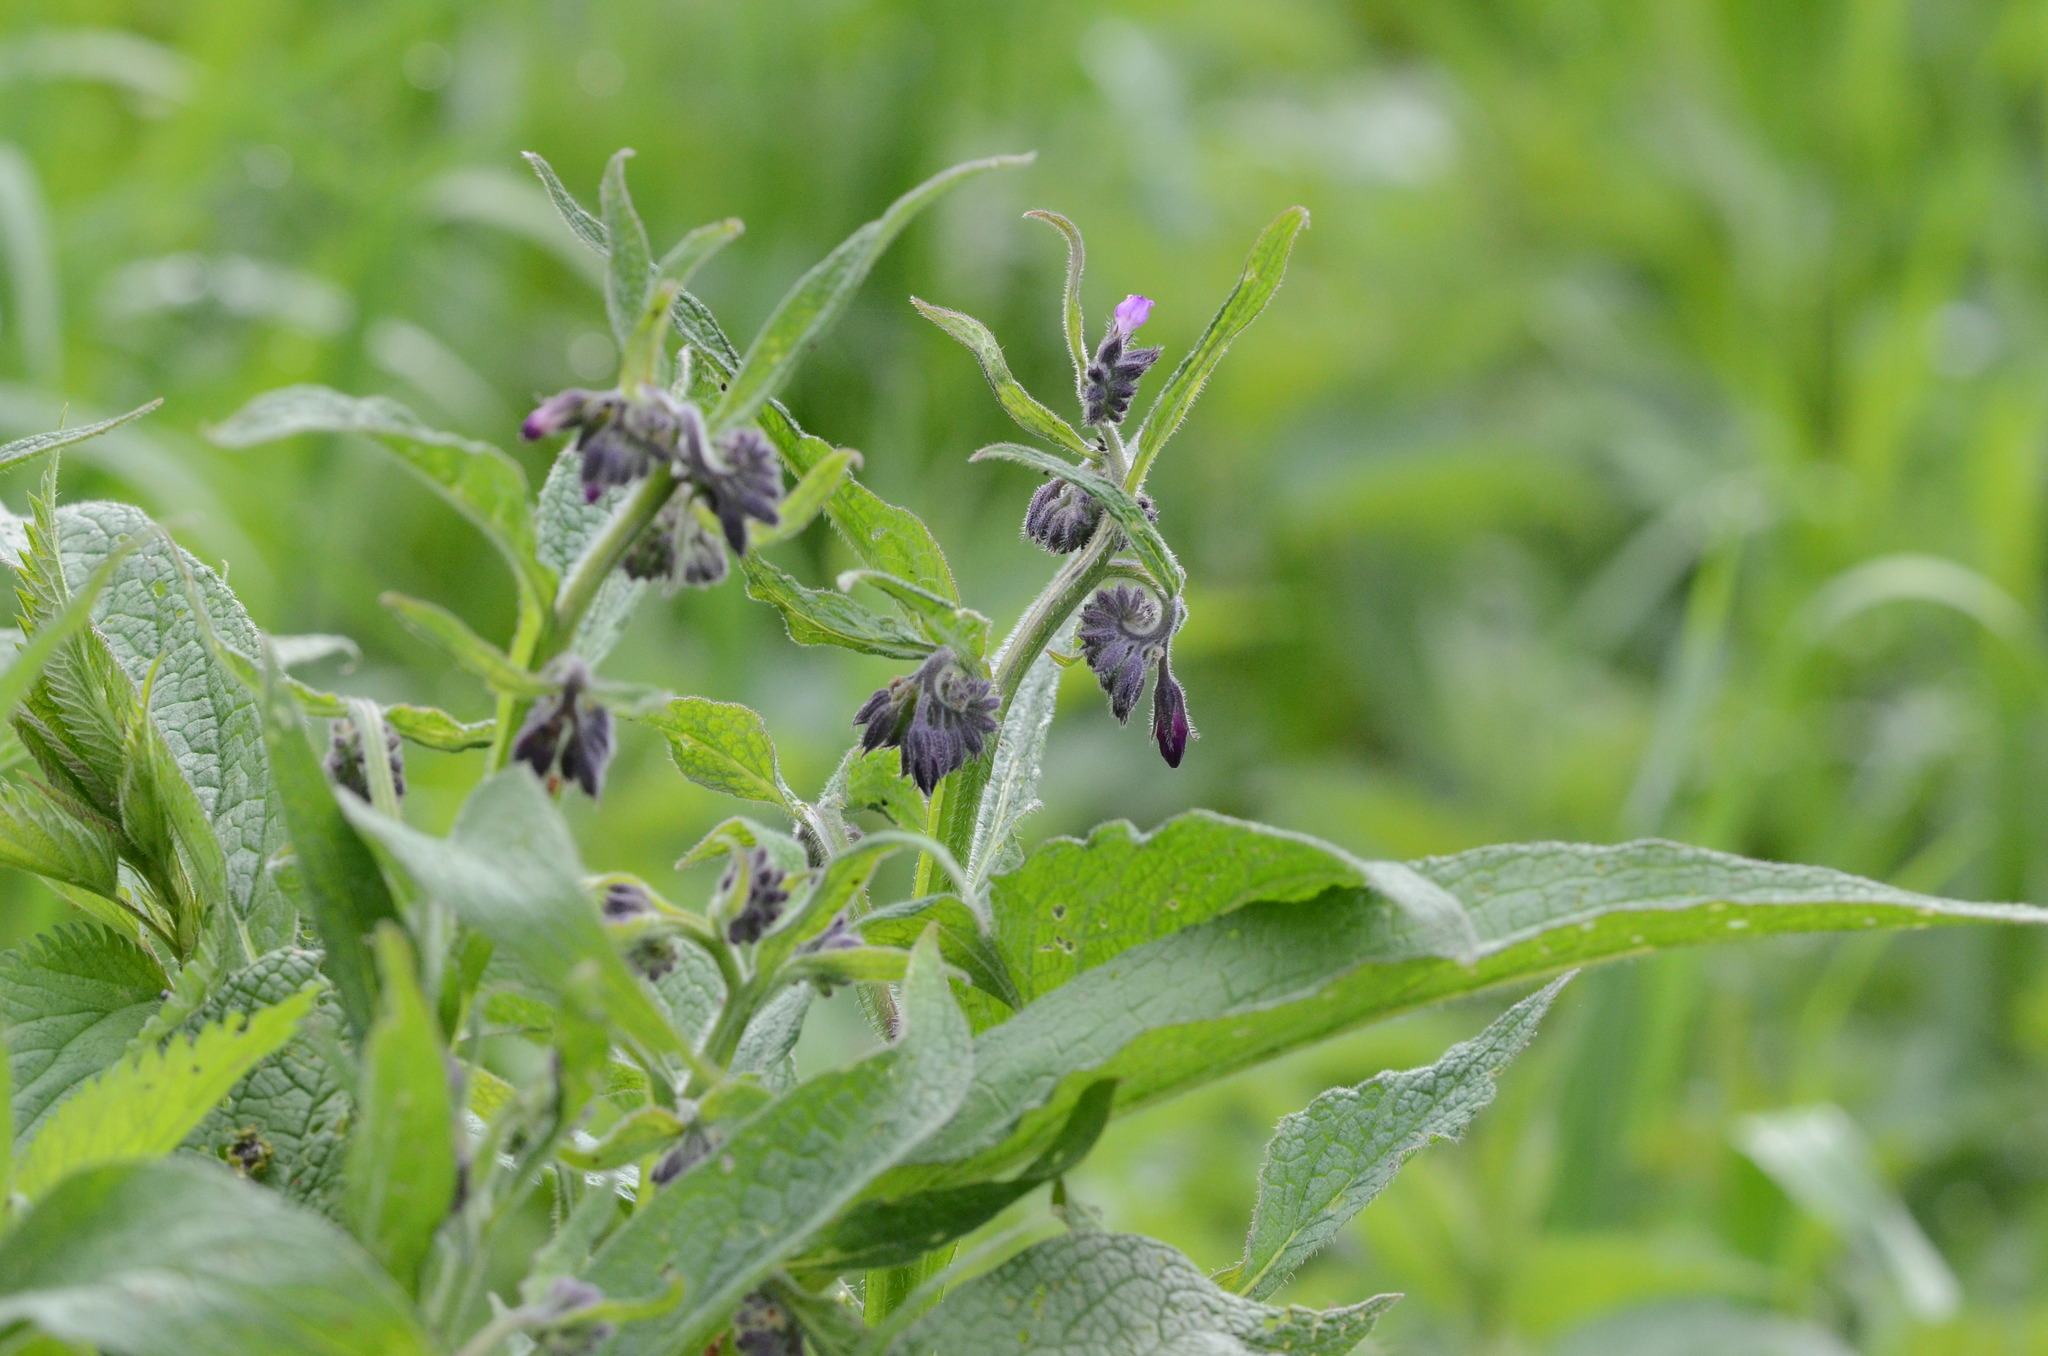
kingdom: Plantae
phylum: Tracheophyta
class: Magnoliopsida
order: Boraginales
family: Boraginaceae
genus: Symphytum
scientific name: Symphytum officinale
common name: Common comfrey
